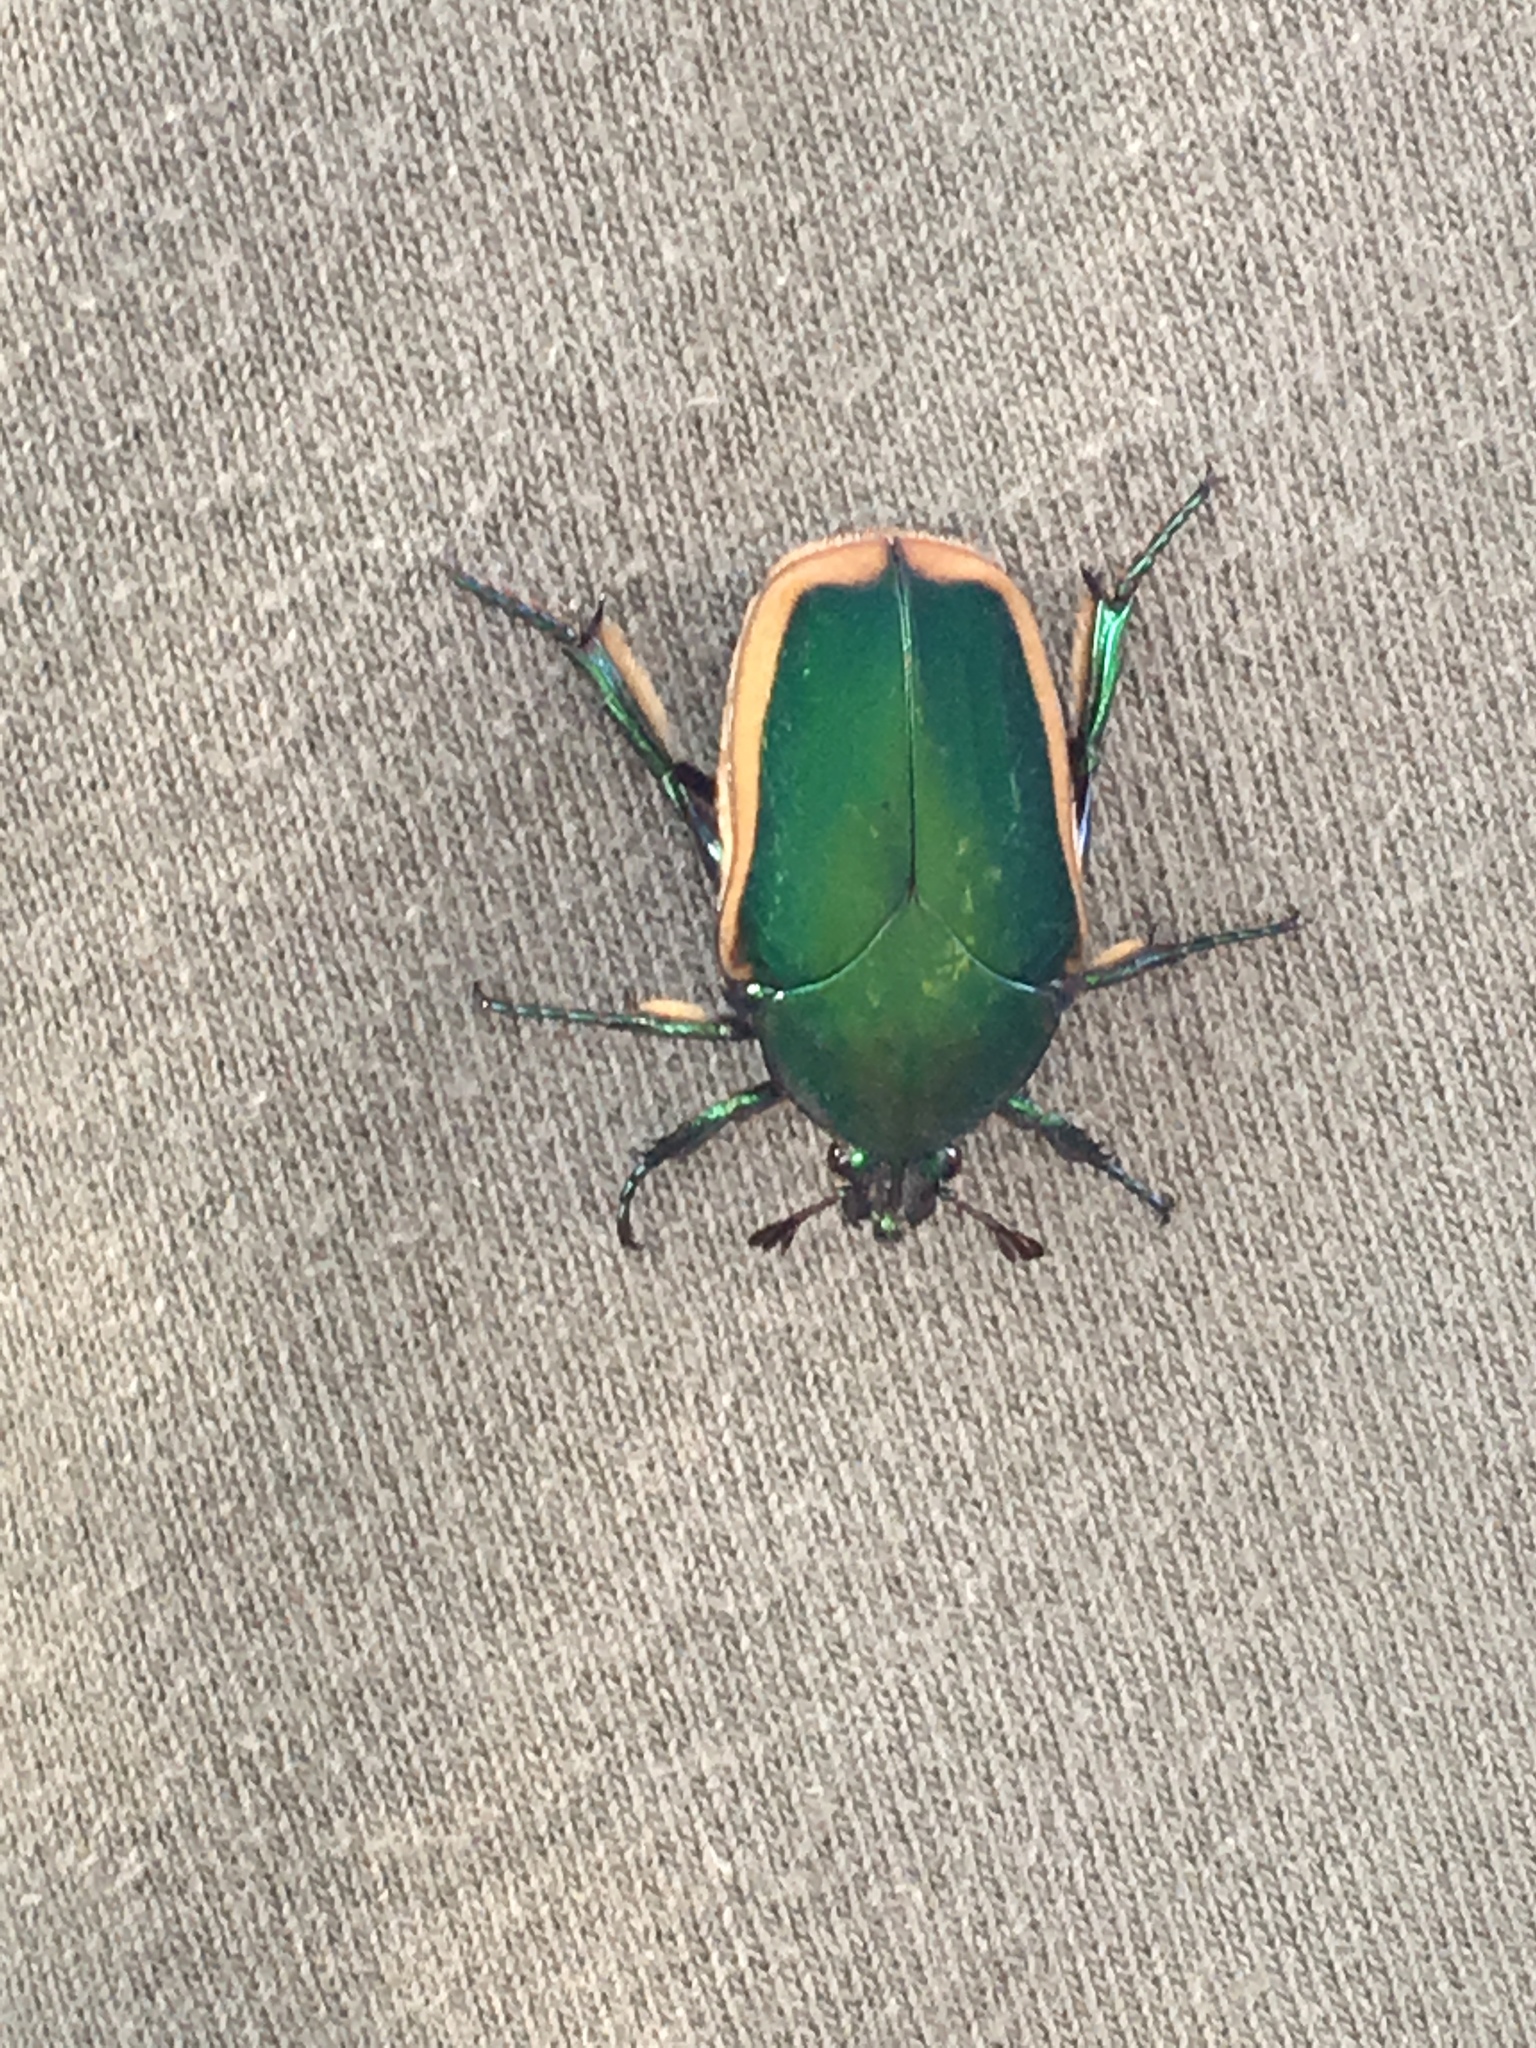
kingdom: Animalia
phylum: Arthropoda
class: Insecta
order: Coleoptera
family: Scarabaeidae
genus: Cotinis
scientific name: Cotinis mutabilis
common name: Figeater beetle
